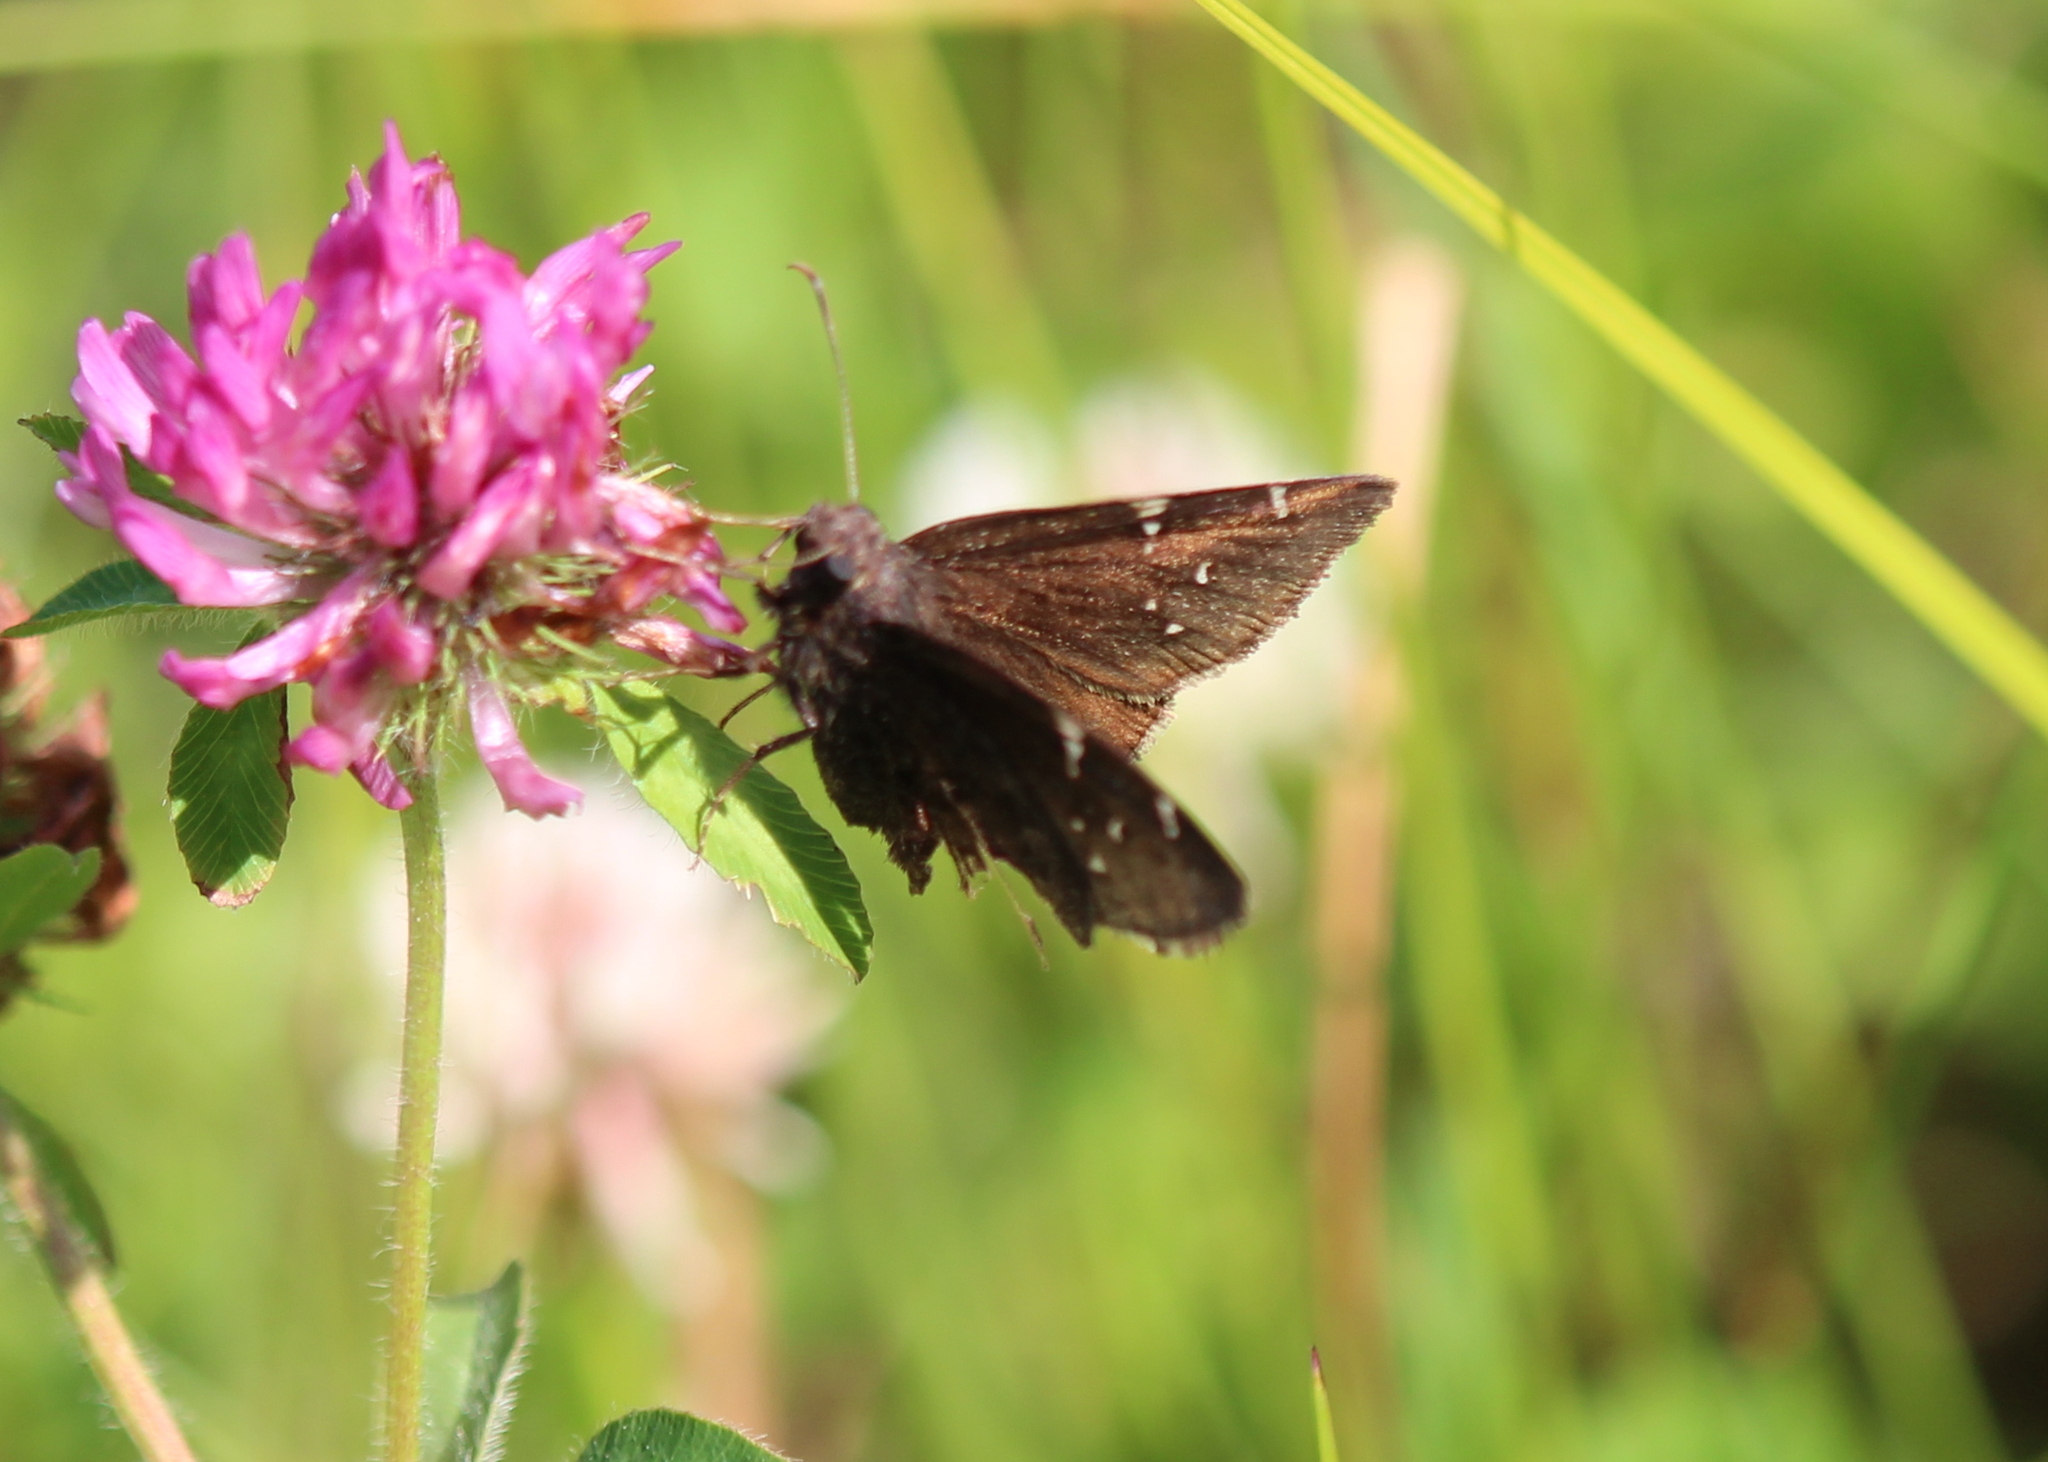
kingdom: Animalia
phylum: Arthropoda
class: Insecta
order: Lepidoptera
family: Hesperiidae
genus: Thorybes
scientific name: Thorybes pylades
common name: Northern cloudywing
